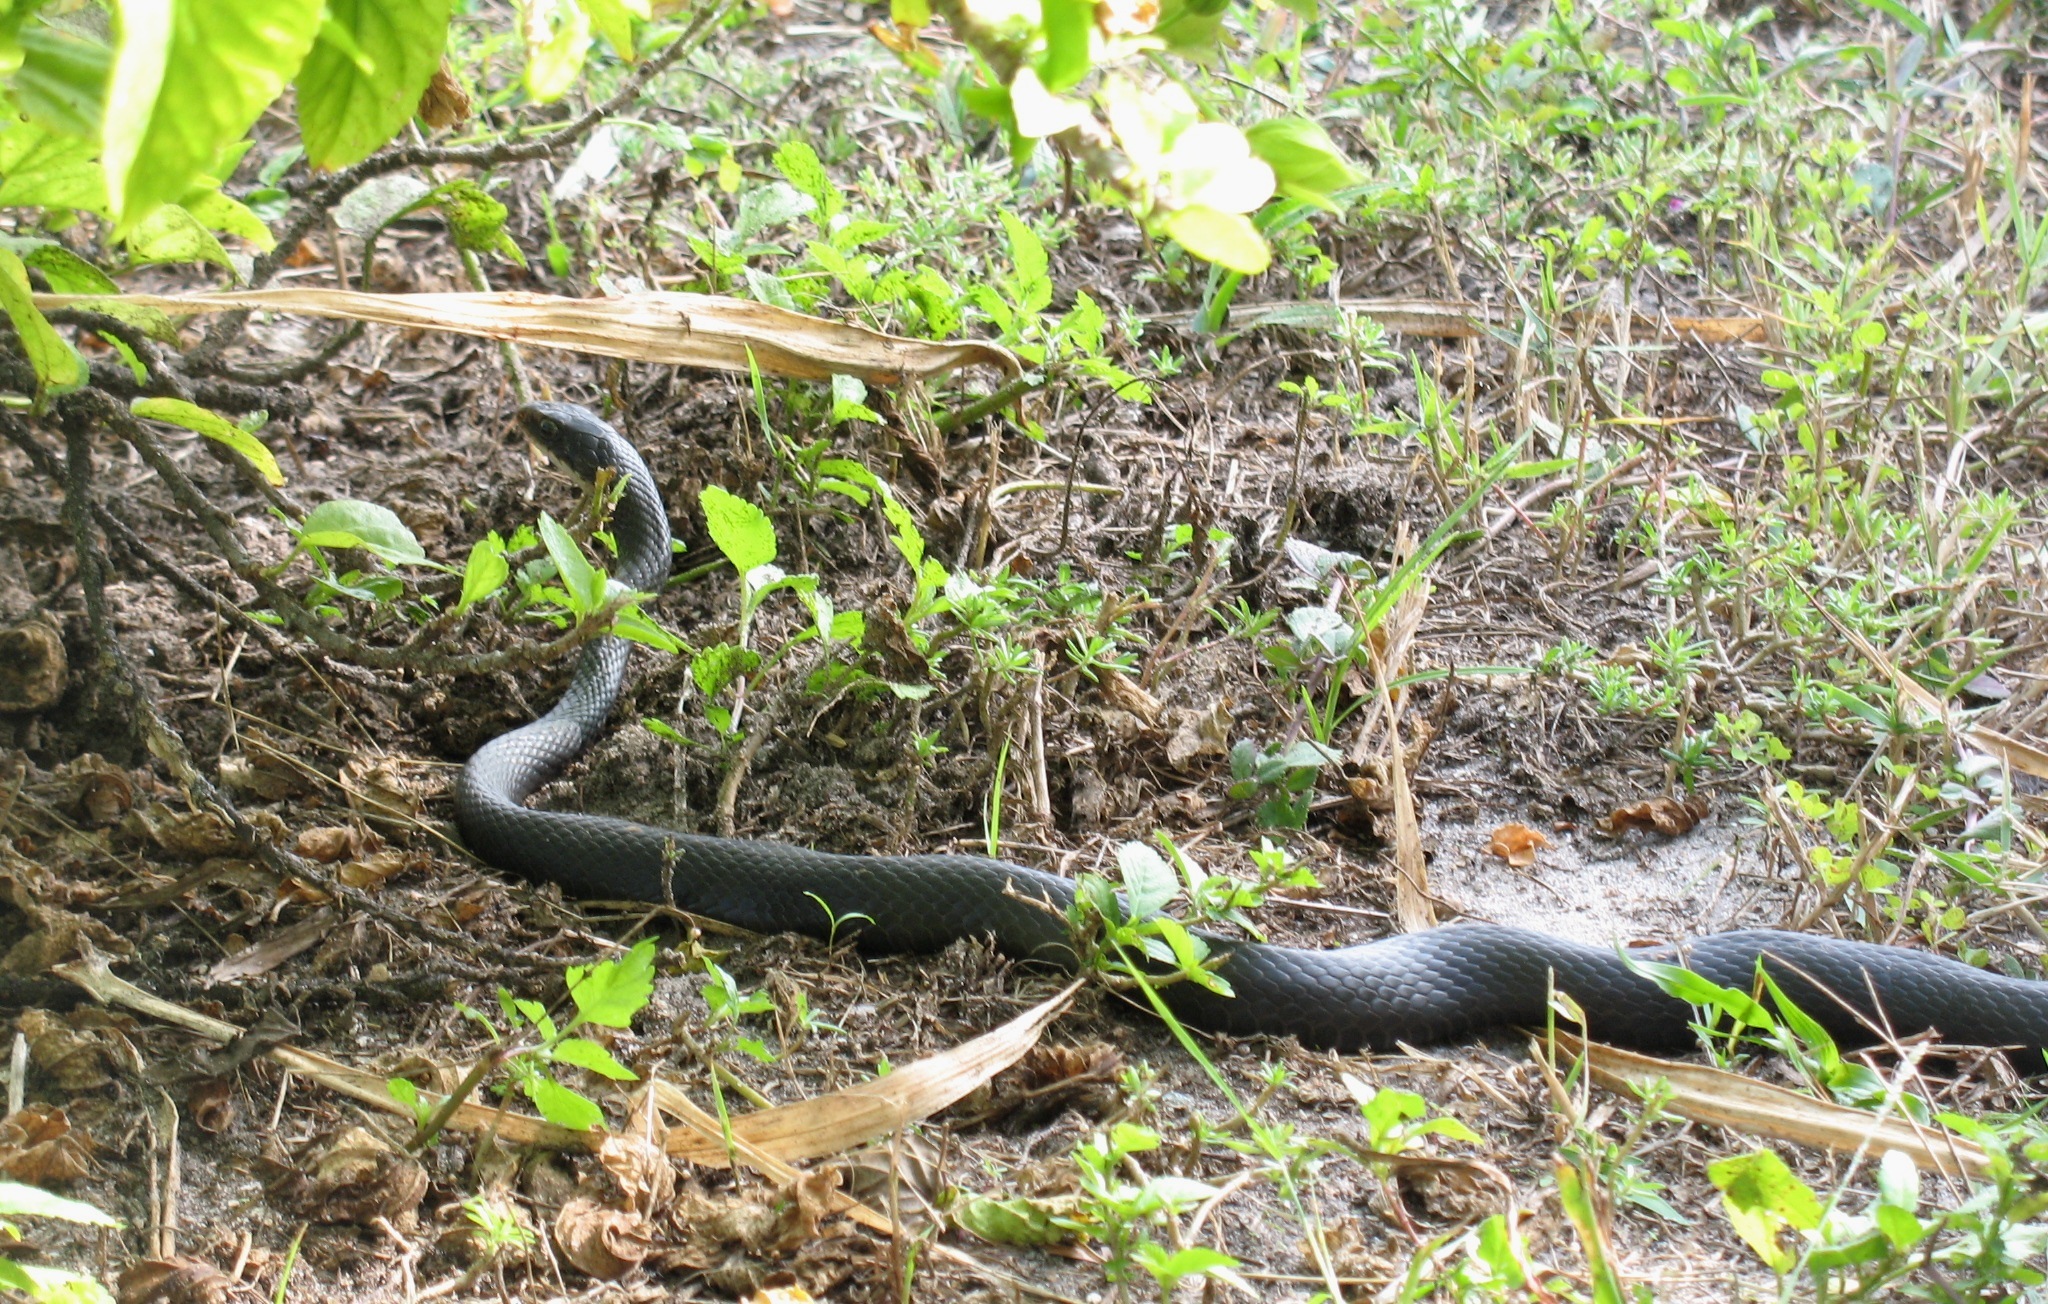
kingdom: Animalia
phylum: Chordata
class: Squamata
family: Colubridae
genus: Coluber
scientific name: Coluber constrictor
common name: Eastern racer
